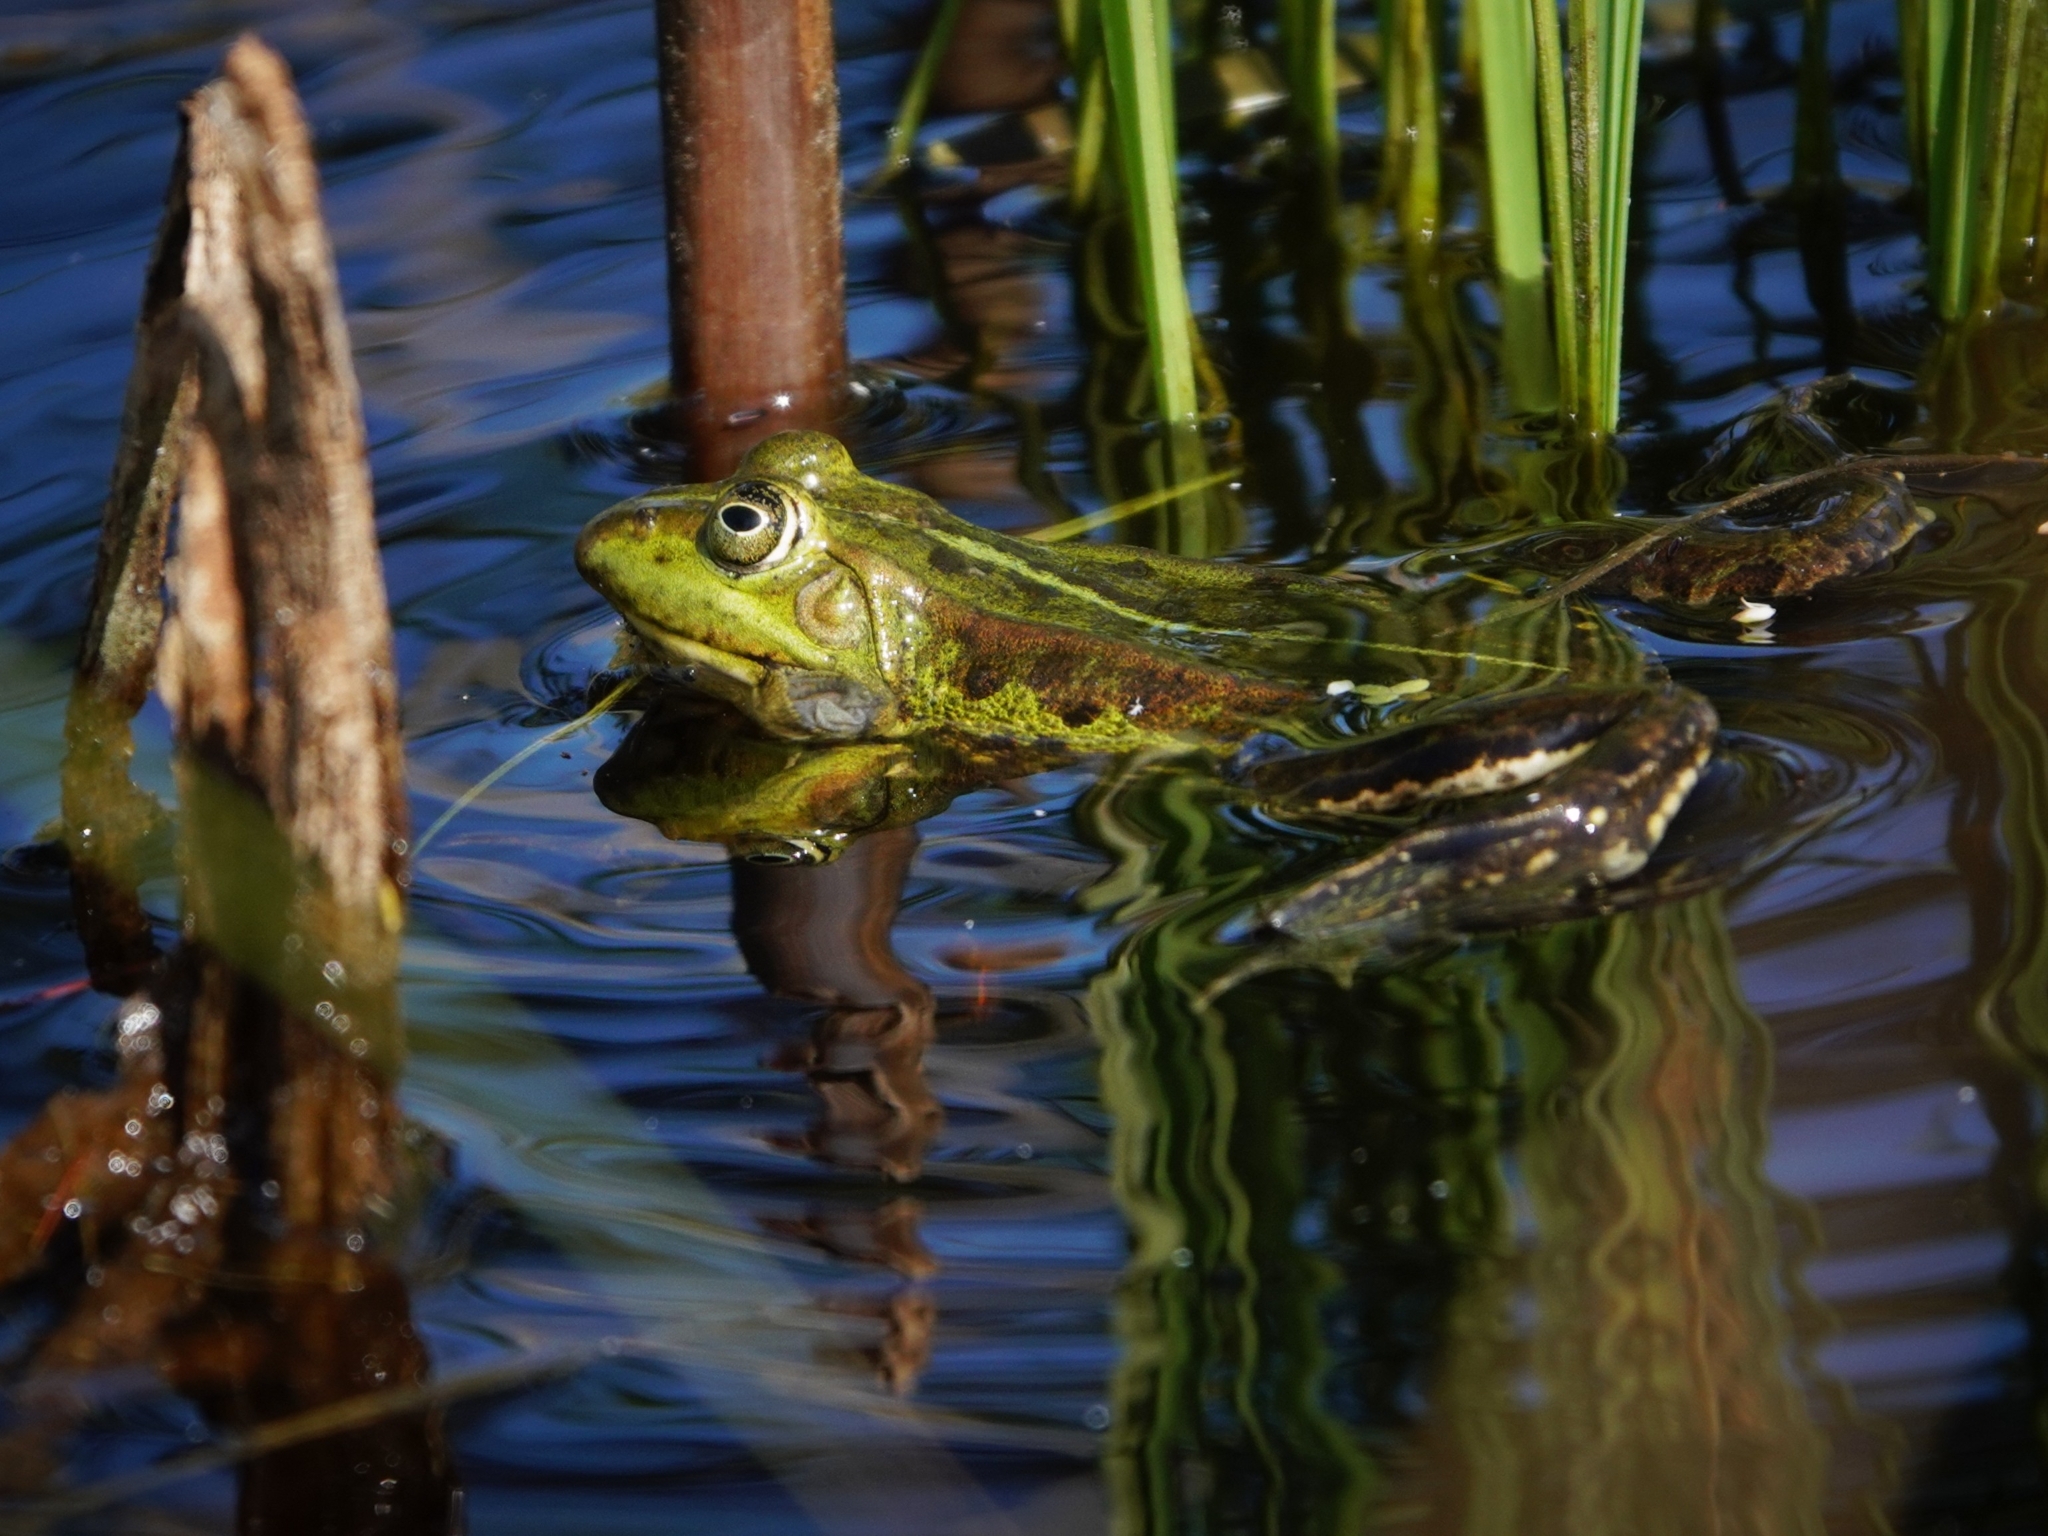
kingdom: Animalia
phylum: Chordata
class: Amphibia
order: Anura
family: Ranidae
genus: Pelophylax
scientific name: Pelophylax lessonae
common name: Pool frog
